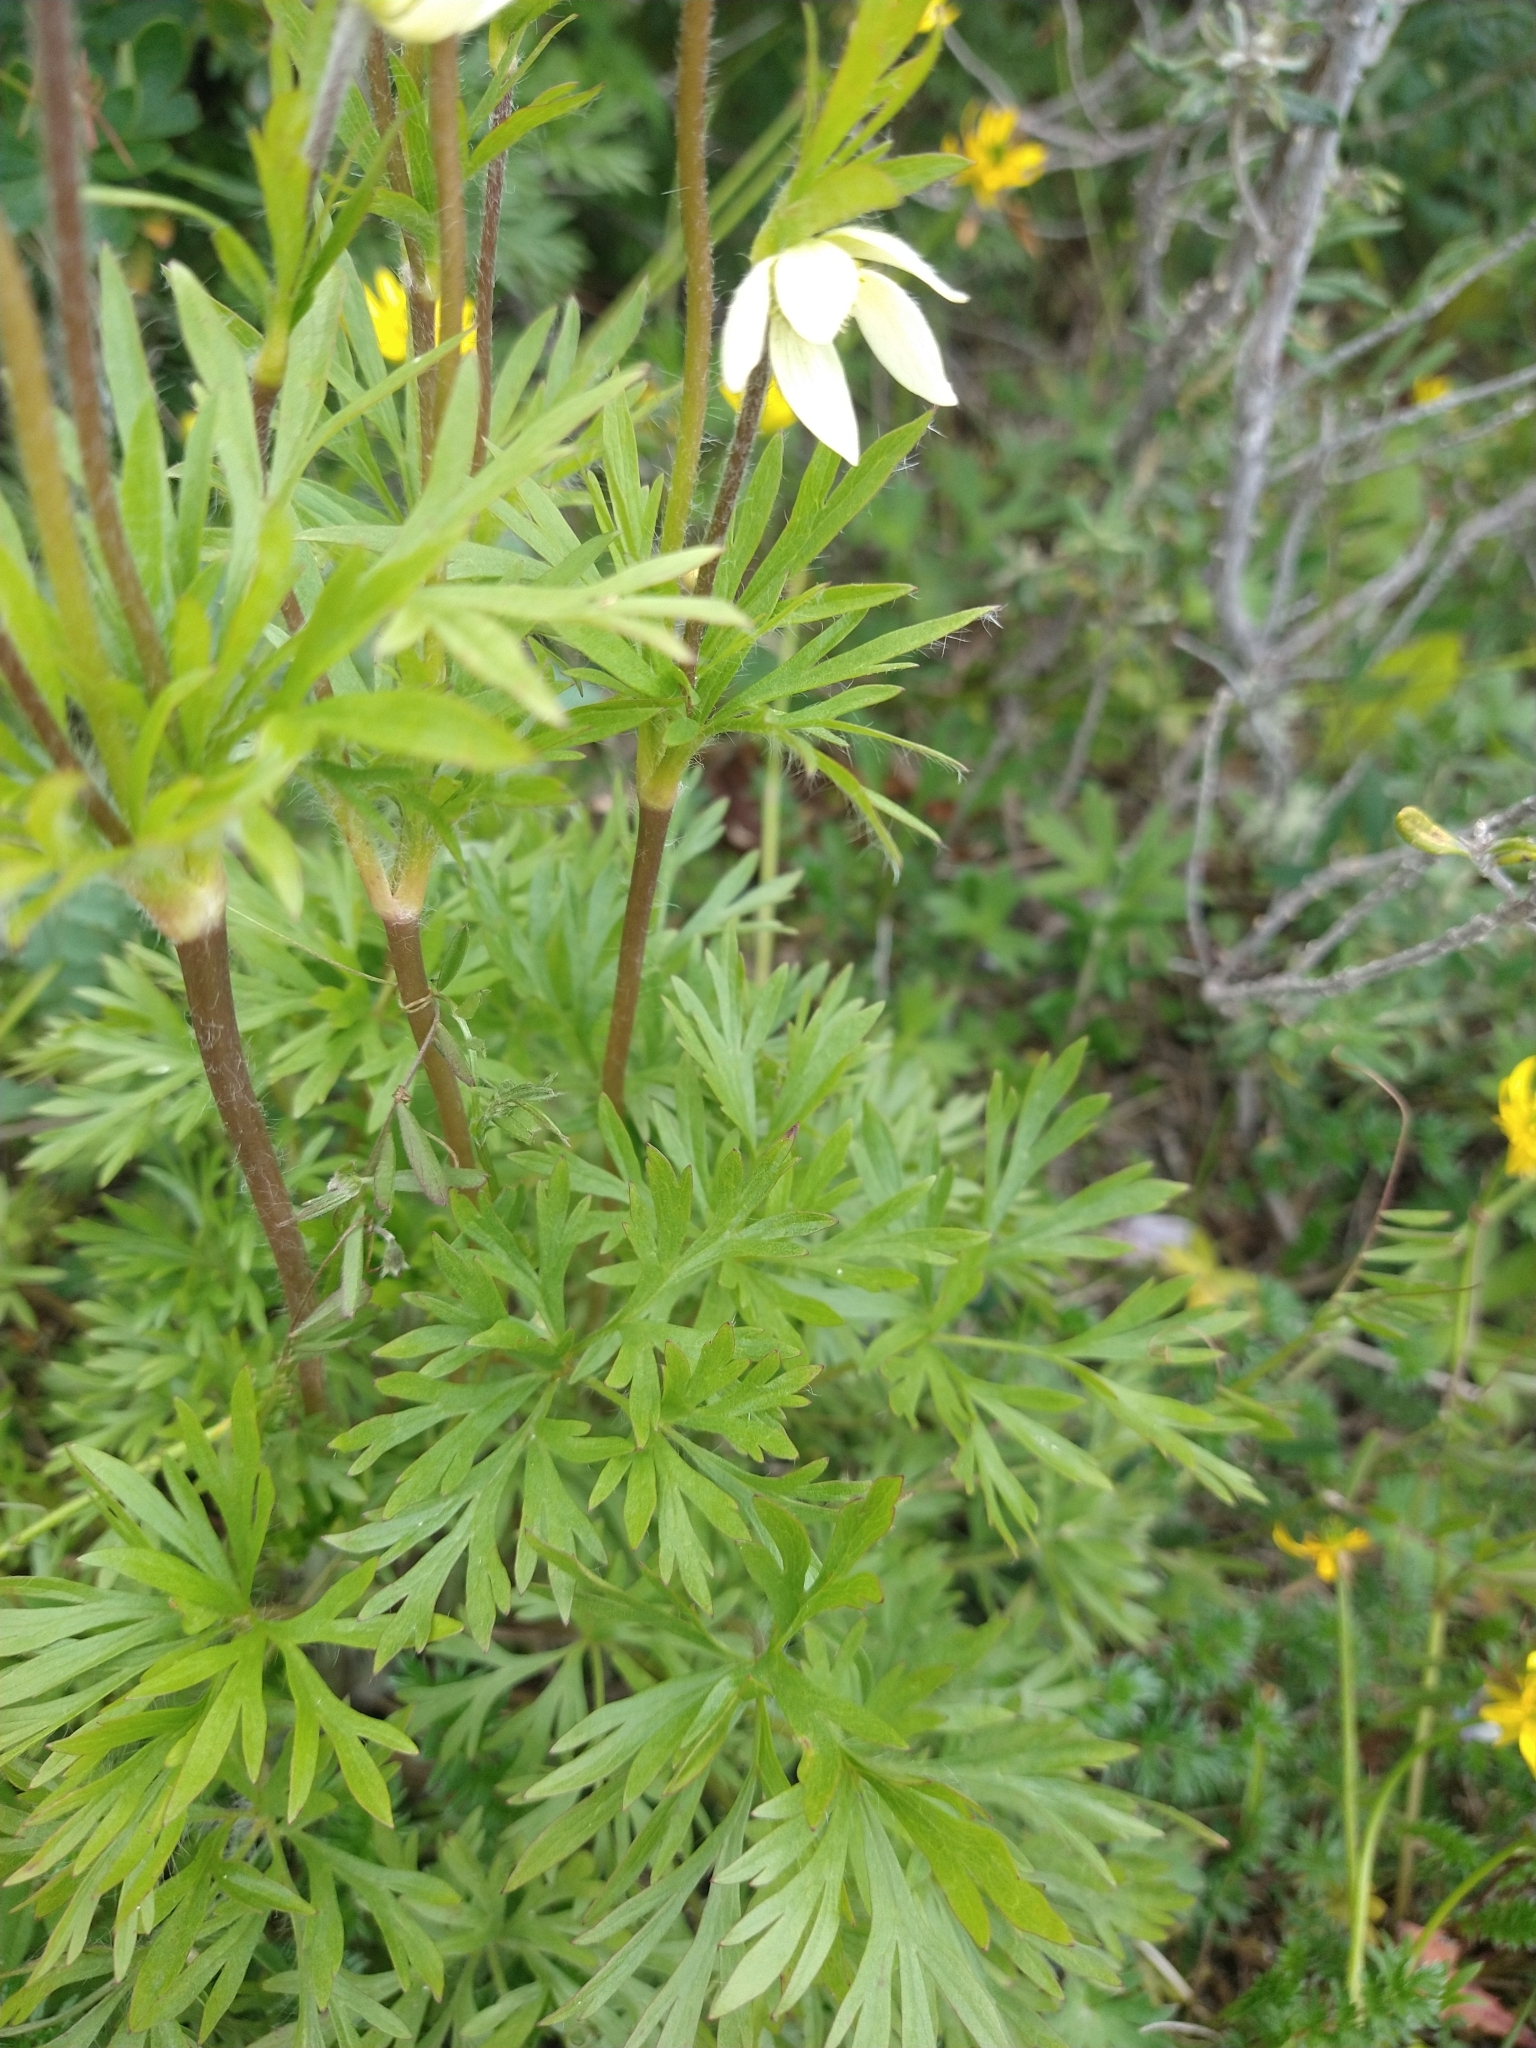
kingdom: Plantae
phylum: Tracheophyta
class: Magnoliopsida
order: Ranunculales
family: Ranunculaceae
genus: Anemone
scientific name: Anemone multifida
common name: Bird's-foot anemone
